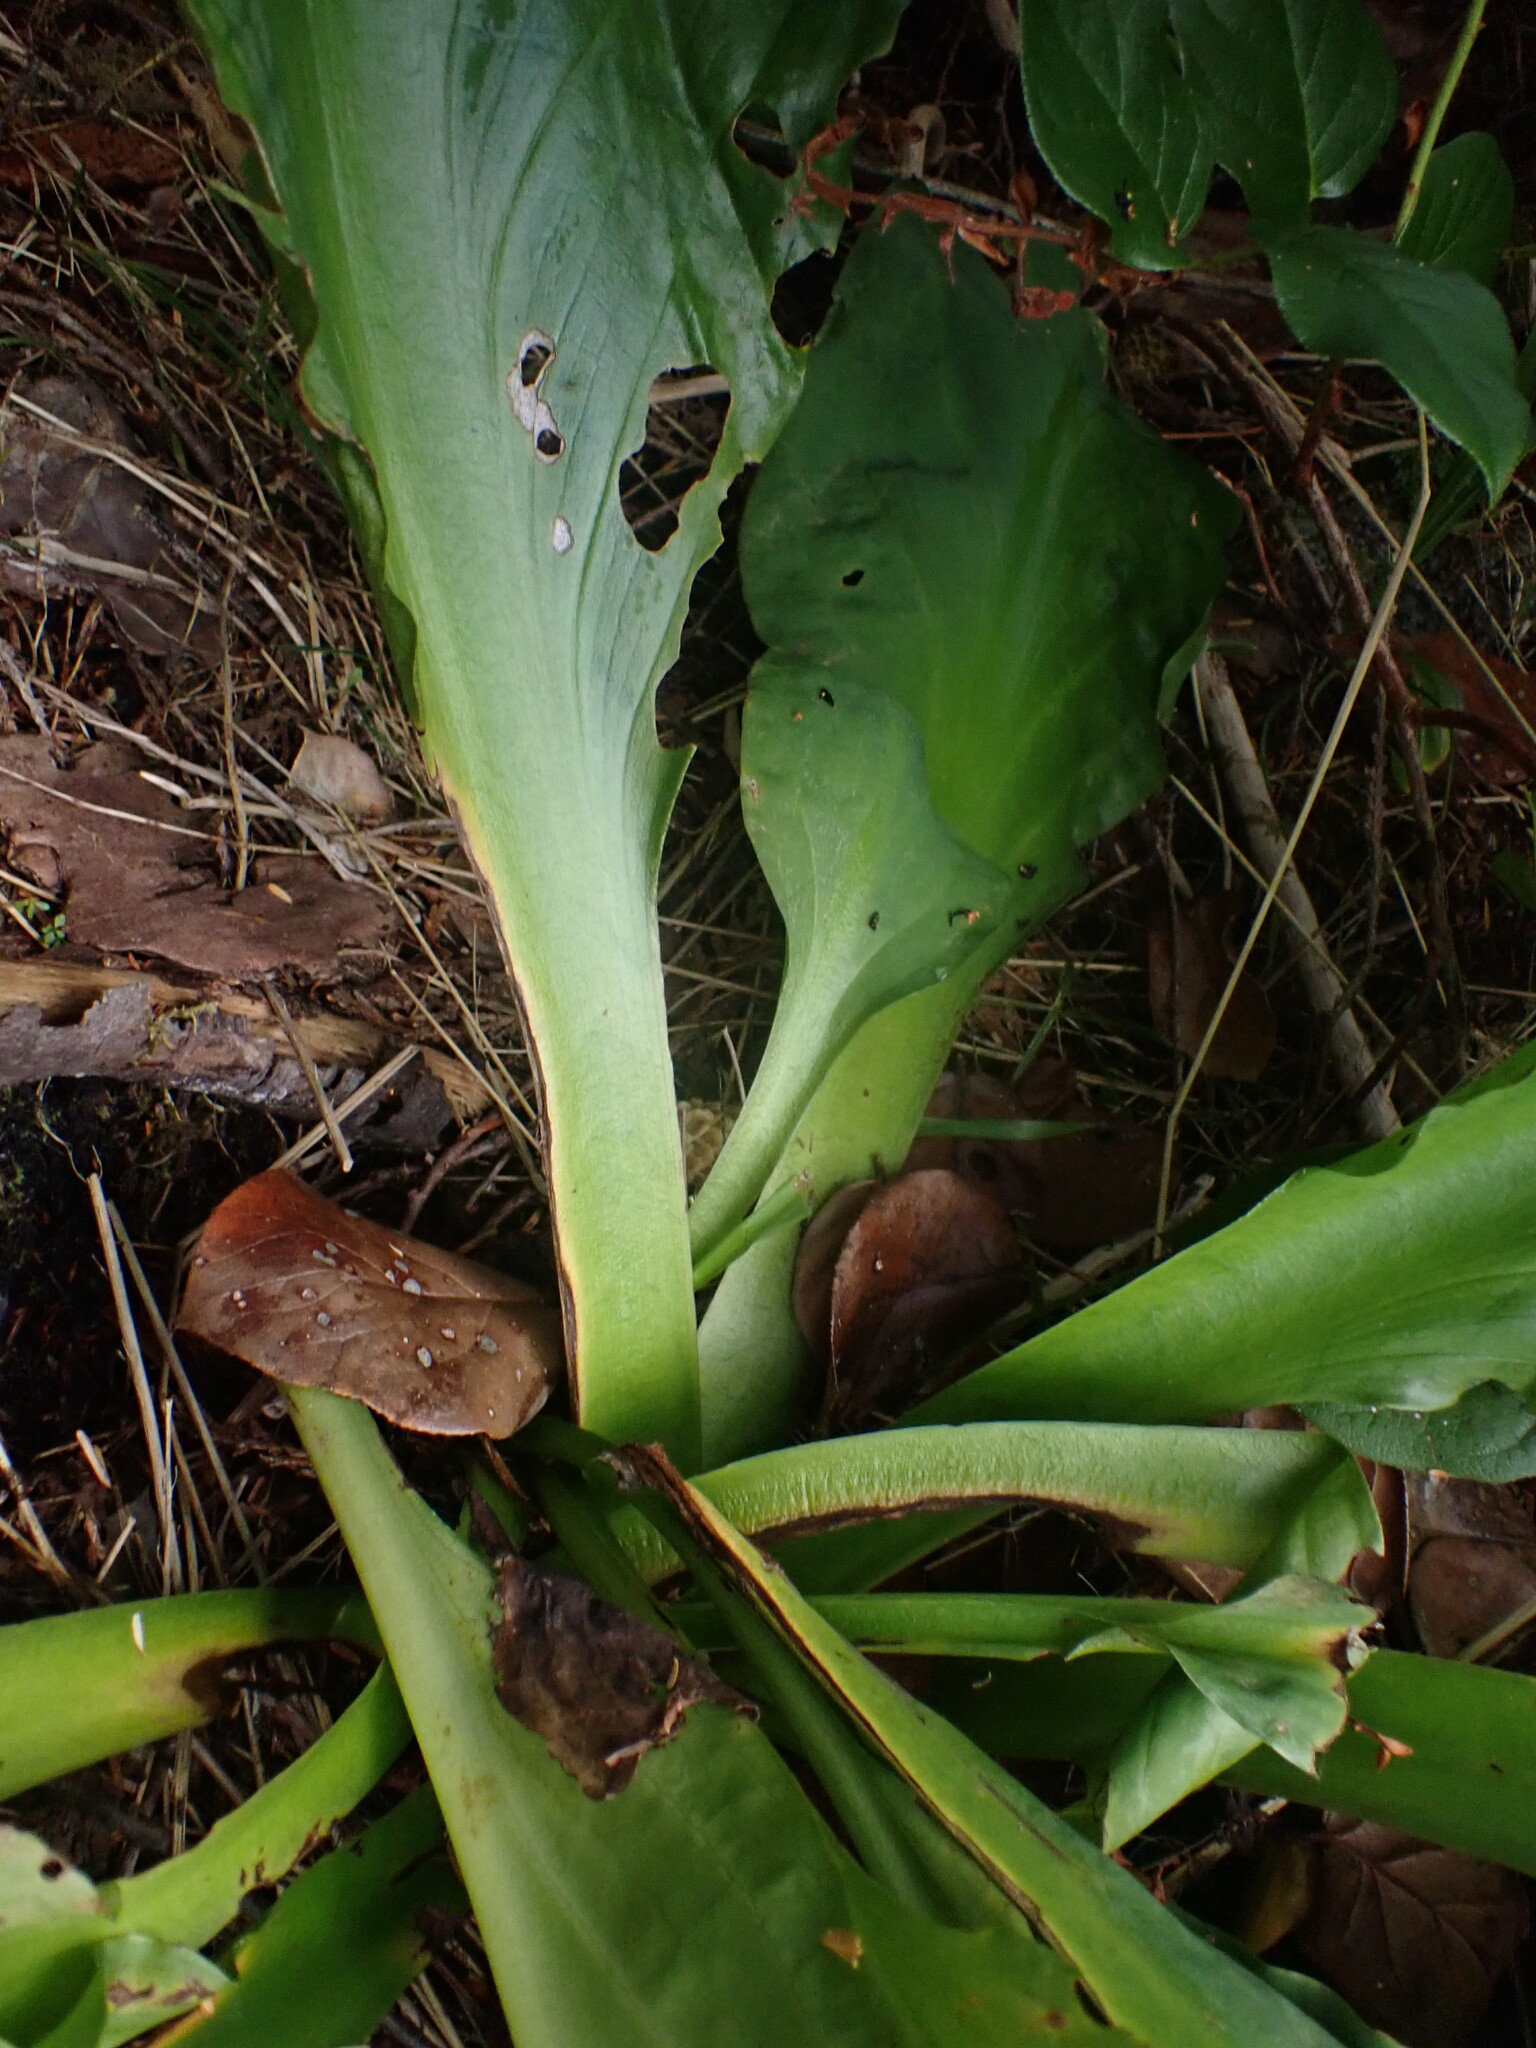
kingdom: Plantae
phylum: Tracheophyta
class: Liliopsida
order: Alismatales
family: Araceae
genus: Lysichiton
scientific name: Lysichiton americanus
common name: American skunk cabbage
